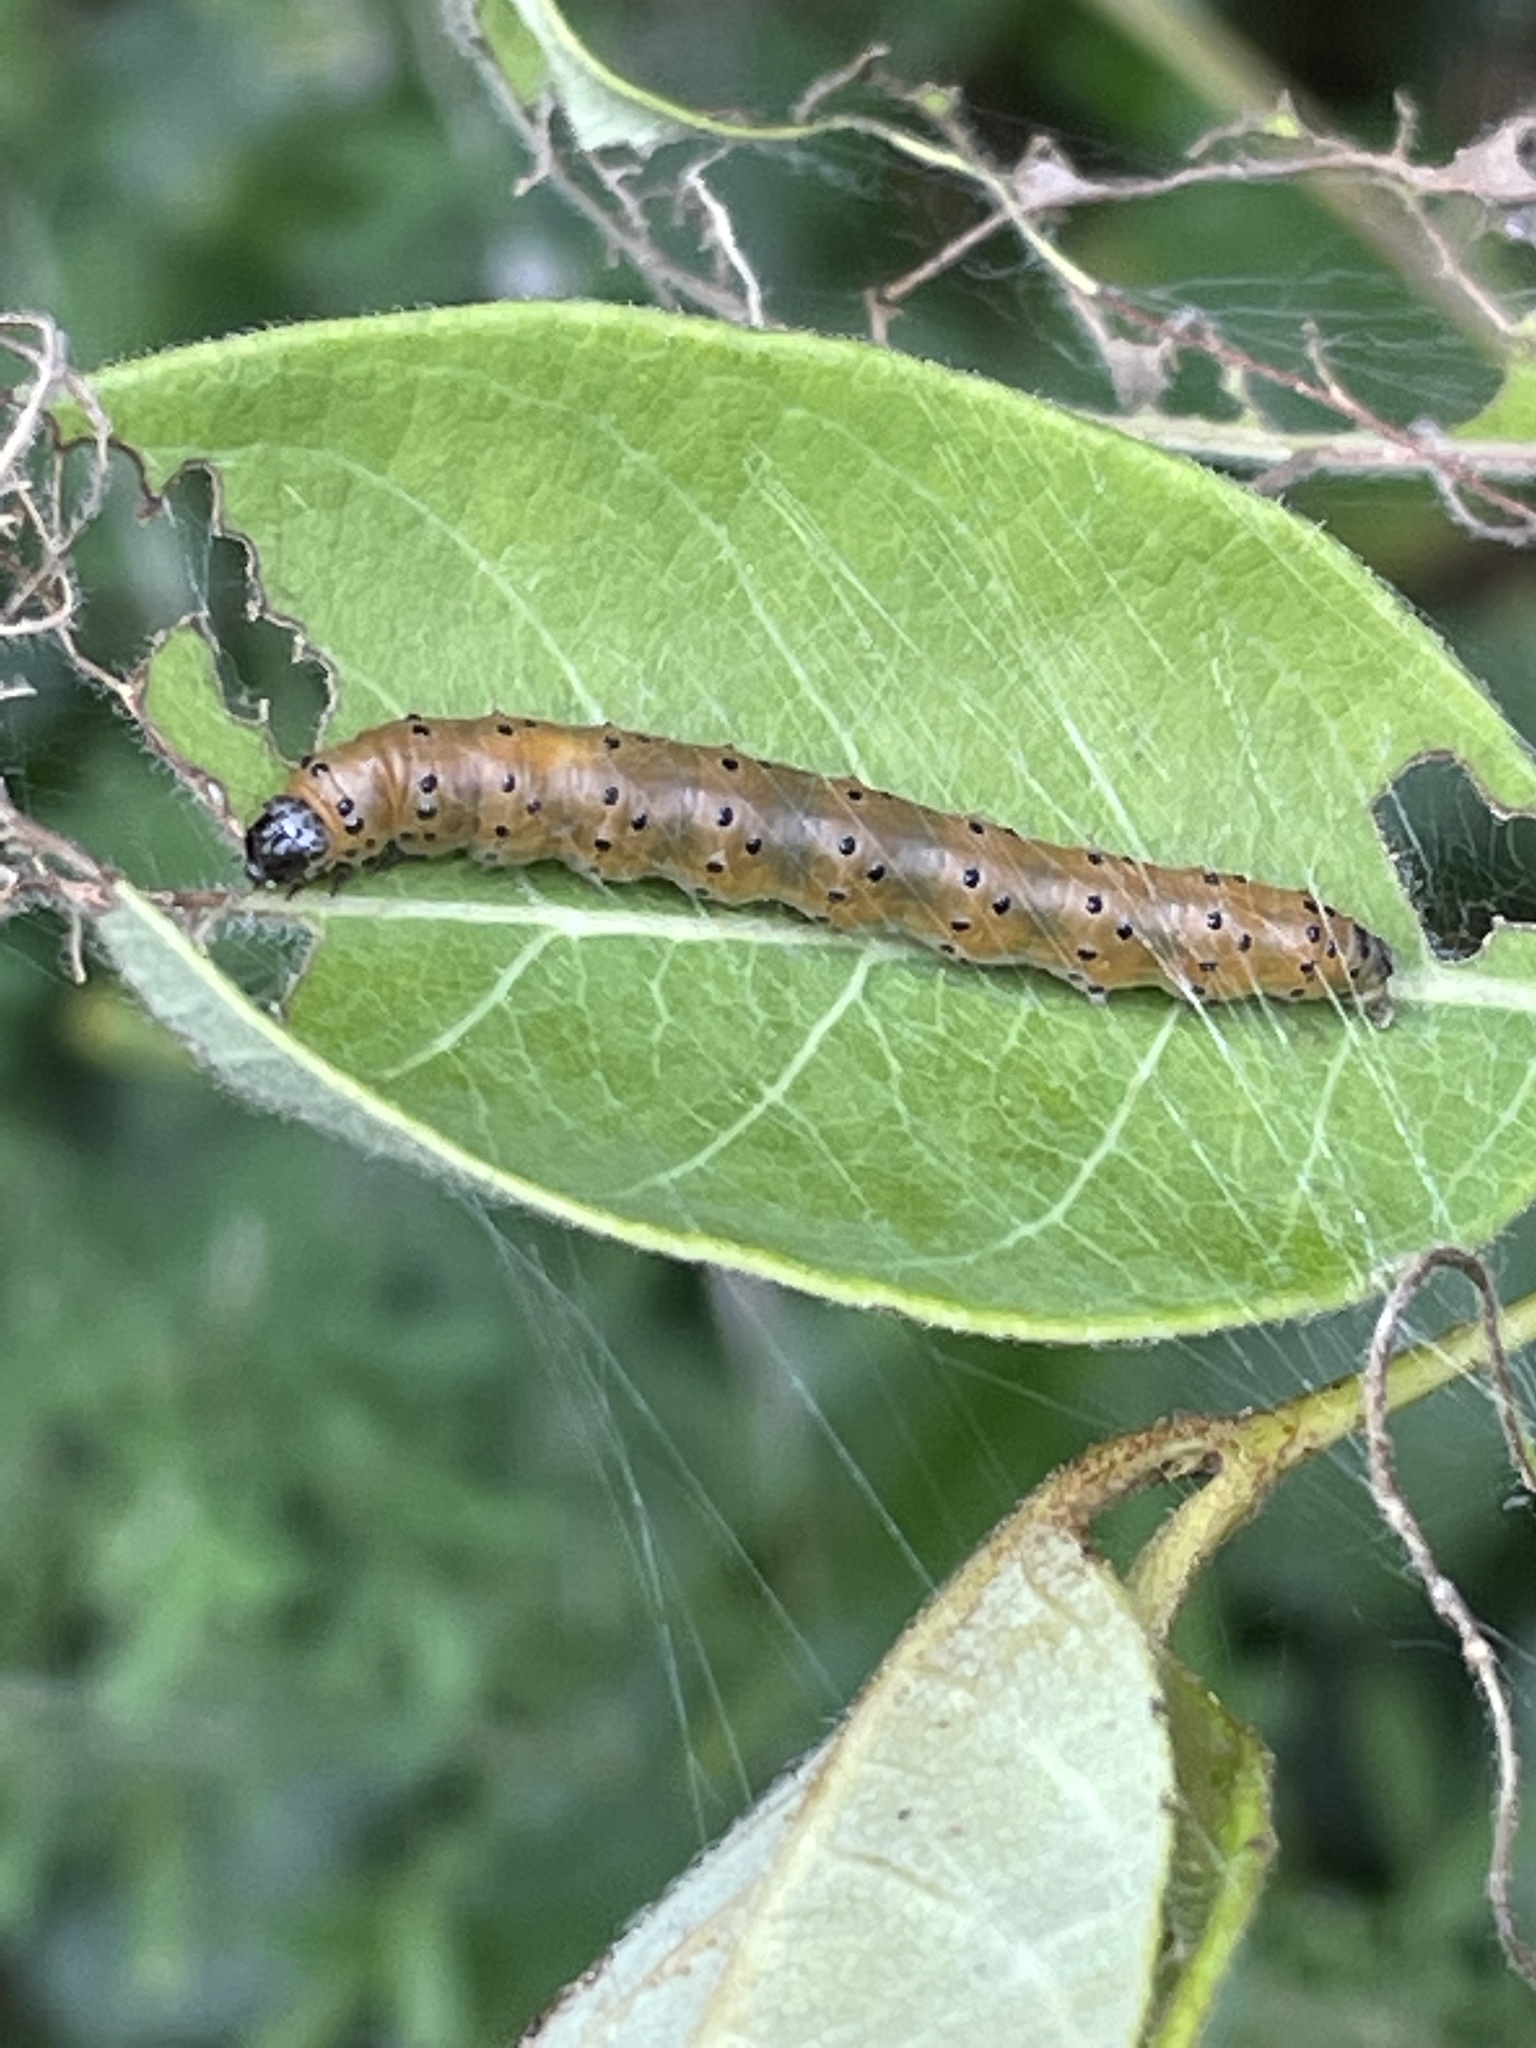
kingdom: Animalia
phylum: Arthropoda
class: Insecta
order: Lepidoptera
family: Crambidae
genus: Saucrobotys
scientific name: Saucrobotys futilalis
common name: Dogbane saucrobotys moth
